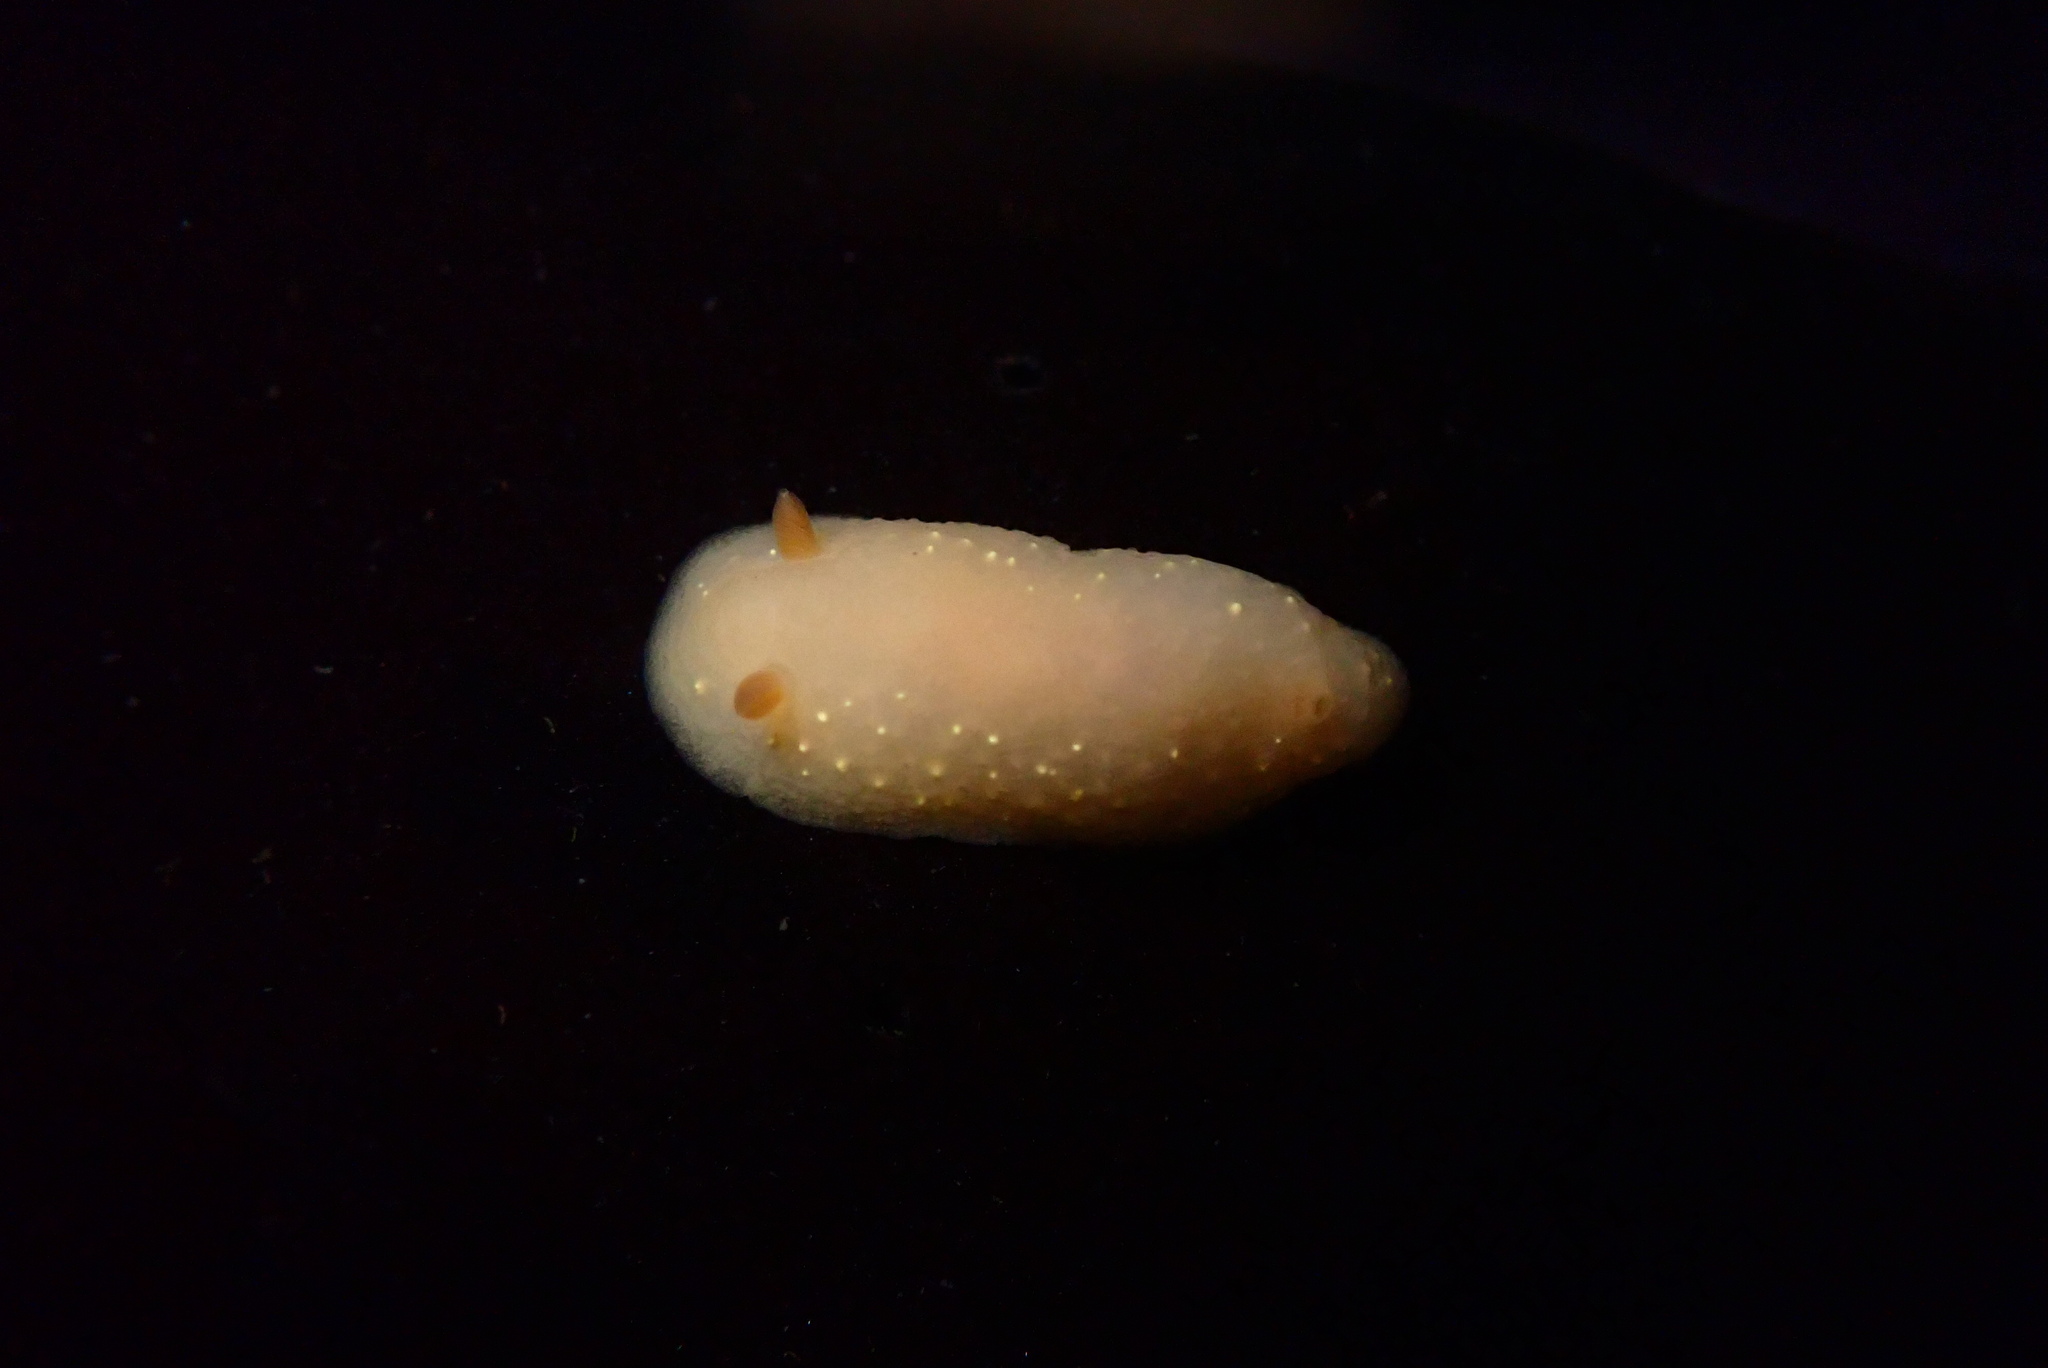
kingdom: Animalia
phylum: Mollusca
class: Gastropoda
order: Nudibranchia
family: Cadlinidae
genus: Cadlina
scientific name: Cadlina modesta
